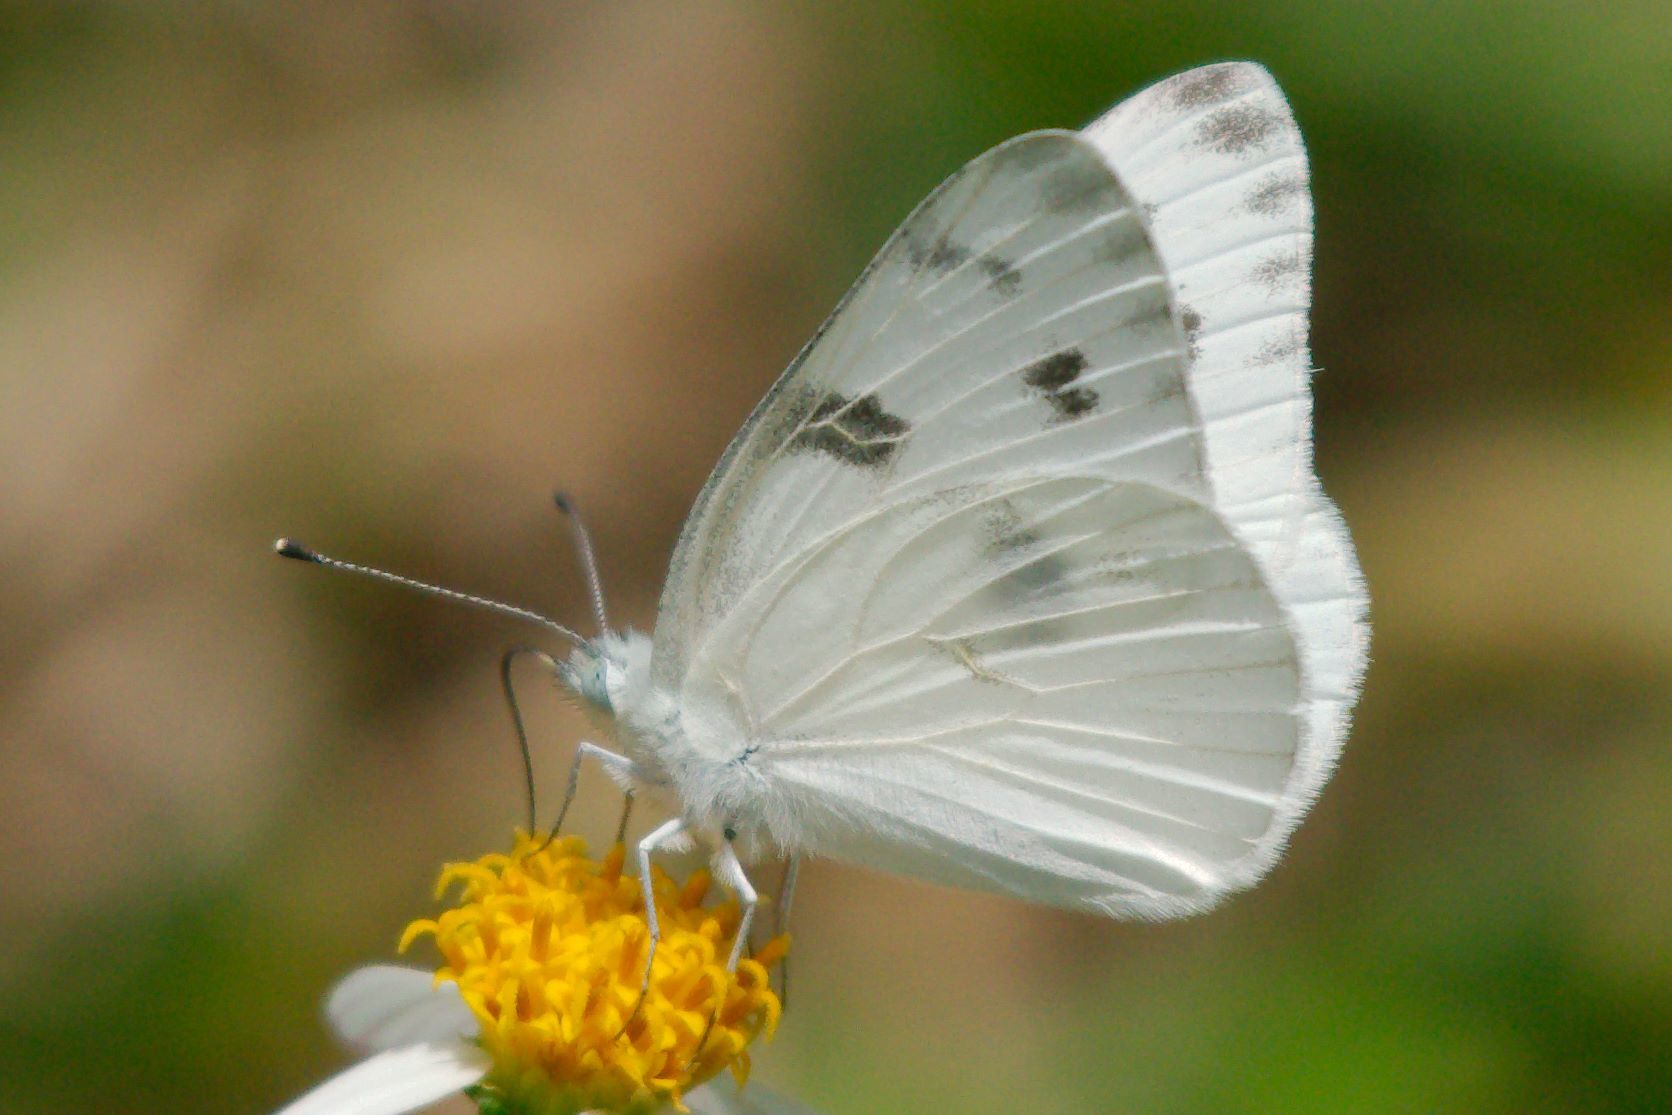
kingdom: Animalia
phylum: Arthropoda
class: Insecta
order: Lepidoptera
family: Pieridae
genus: Pontia
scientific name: Pontia protodice
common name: Checkered white
